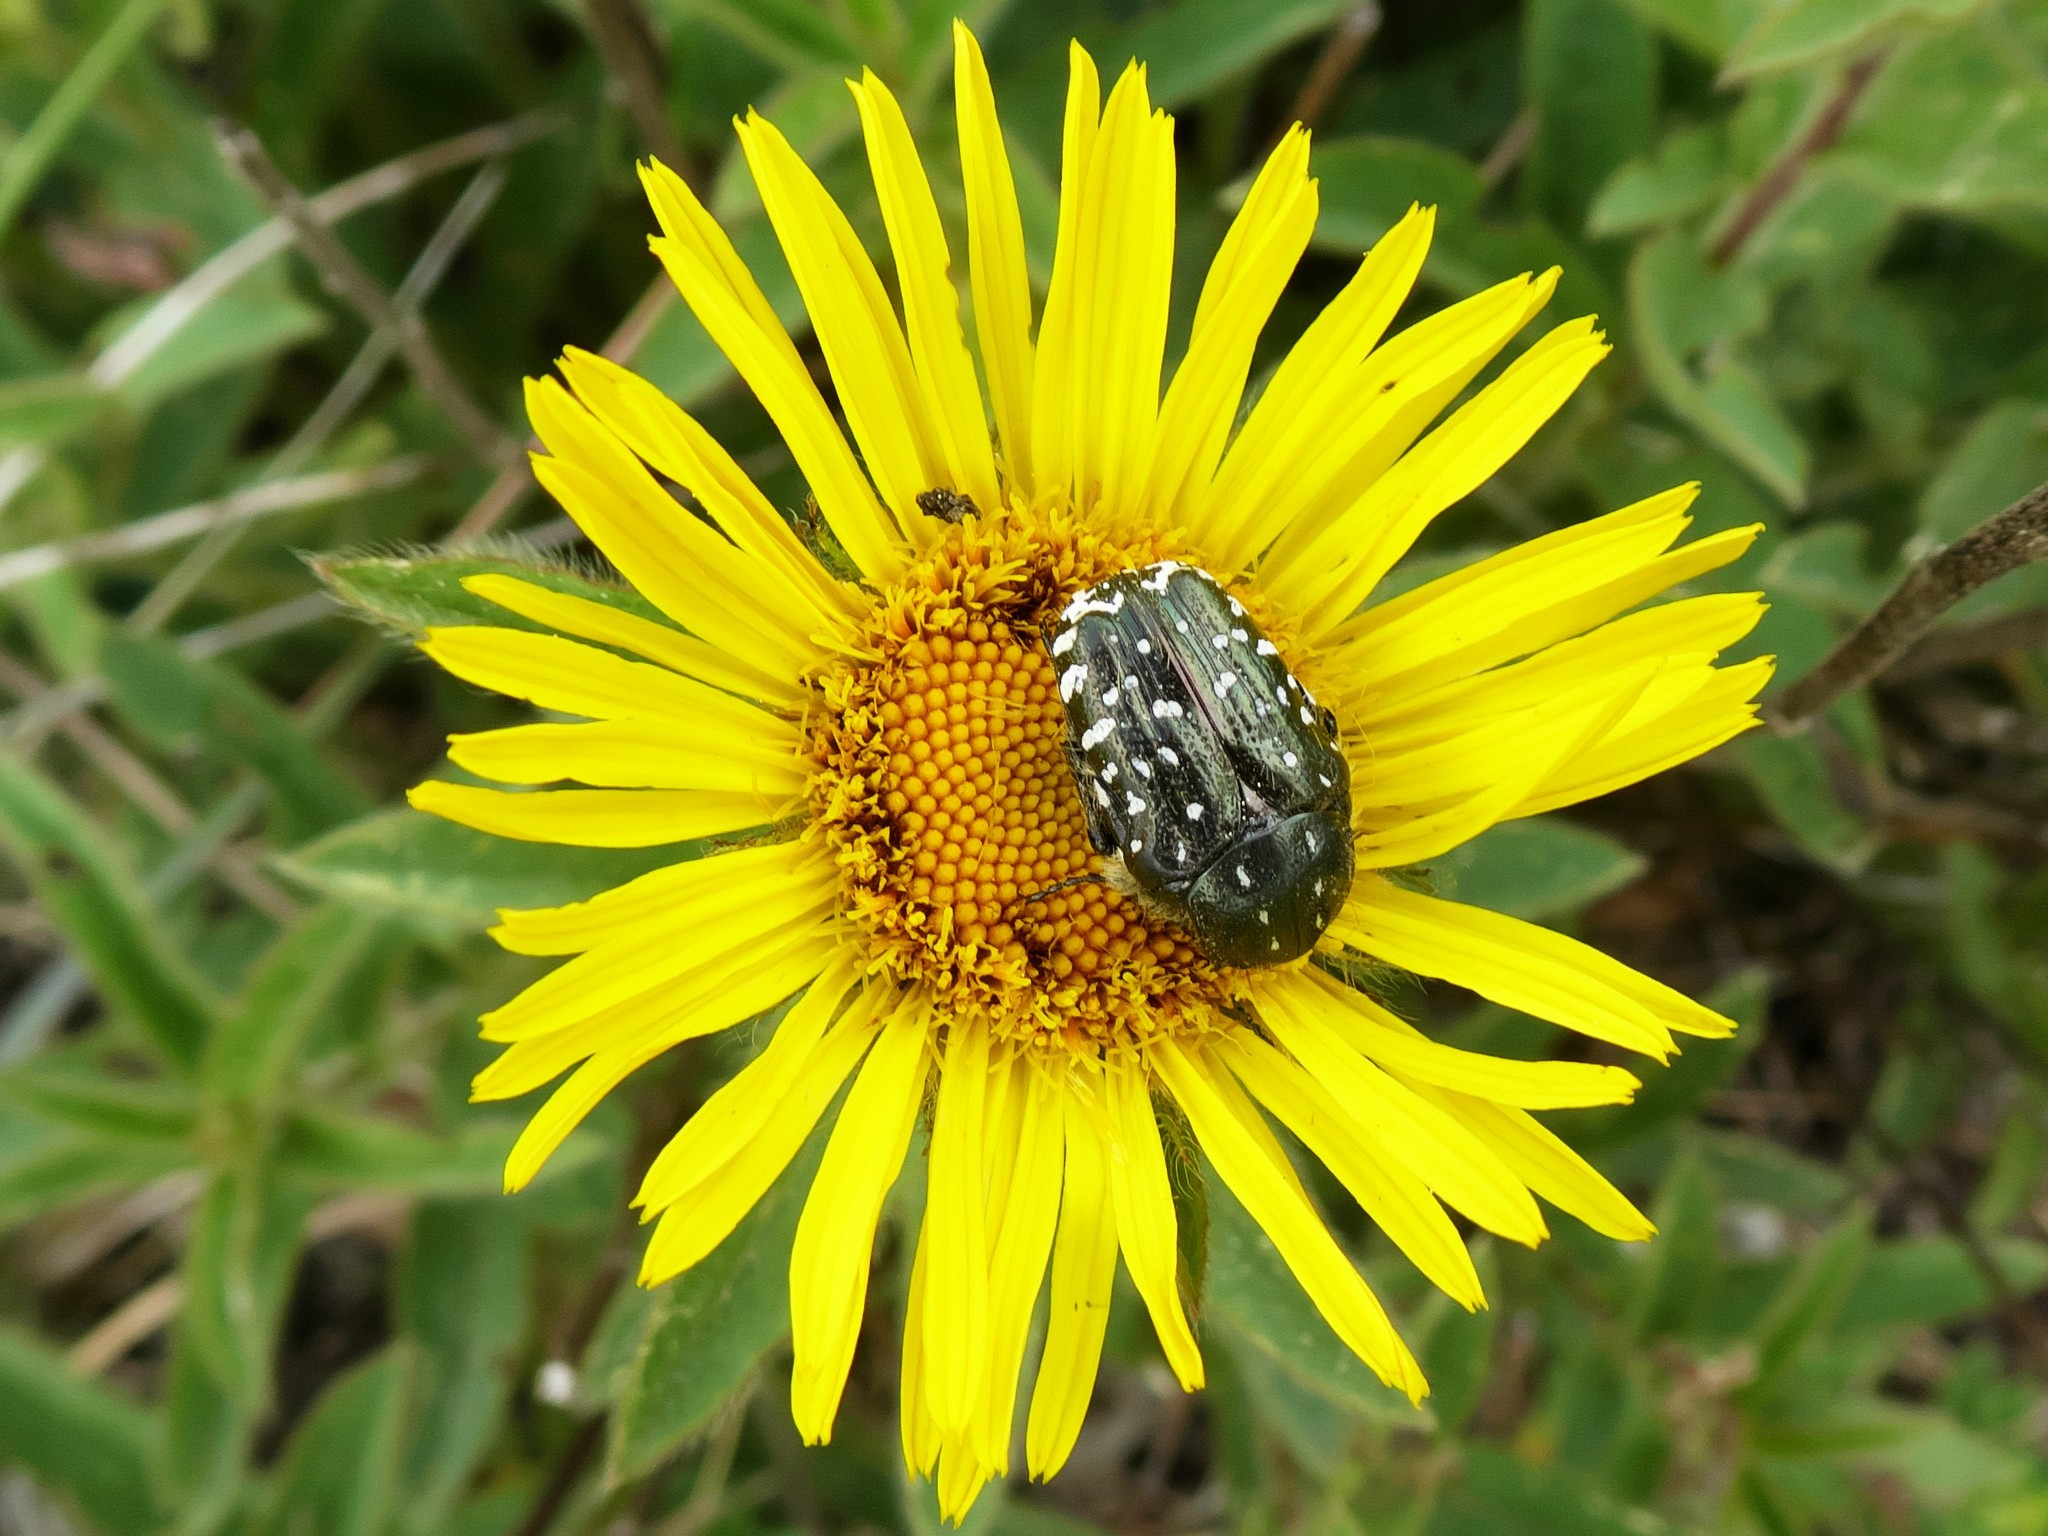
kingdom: Animalia
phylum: Arthropoda
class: Insecta
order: Coleoptera
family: Scarabaeidae
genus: Oxythyrea
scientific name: Oxythyrea funesta
